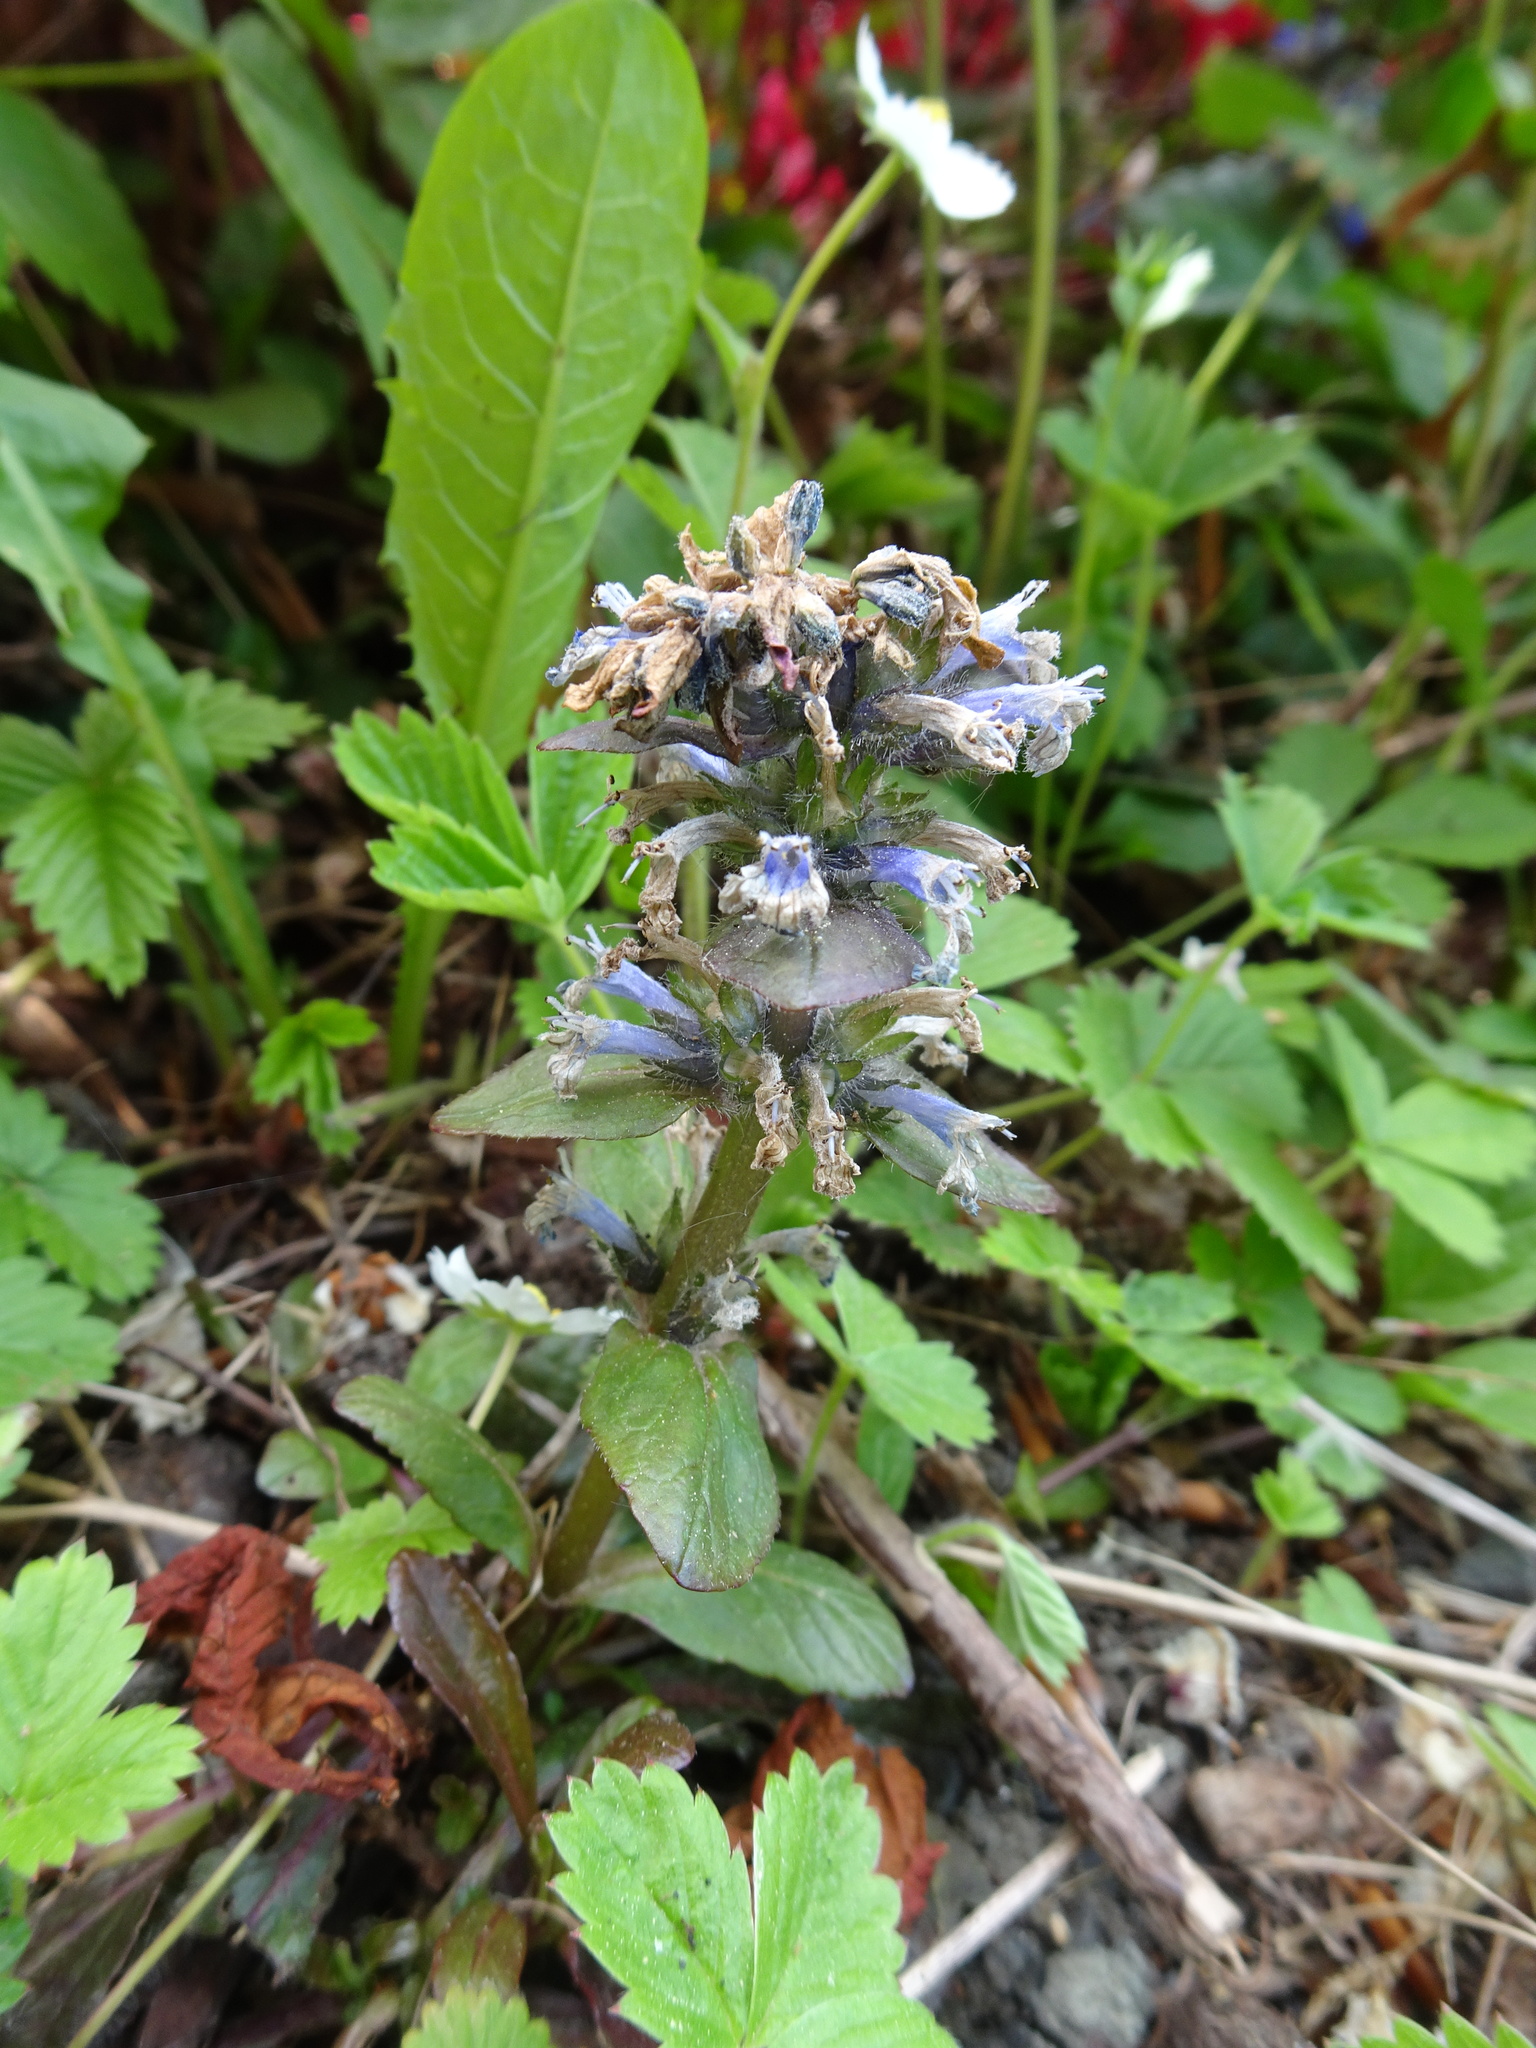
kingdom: Plantae
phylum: Tracheophyta
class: Magnoliopsida
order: Lamiales
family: Lamiaceae
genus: Ajuga
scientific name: Ajuga reptans
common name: Bugle
